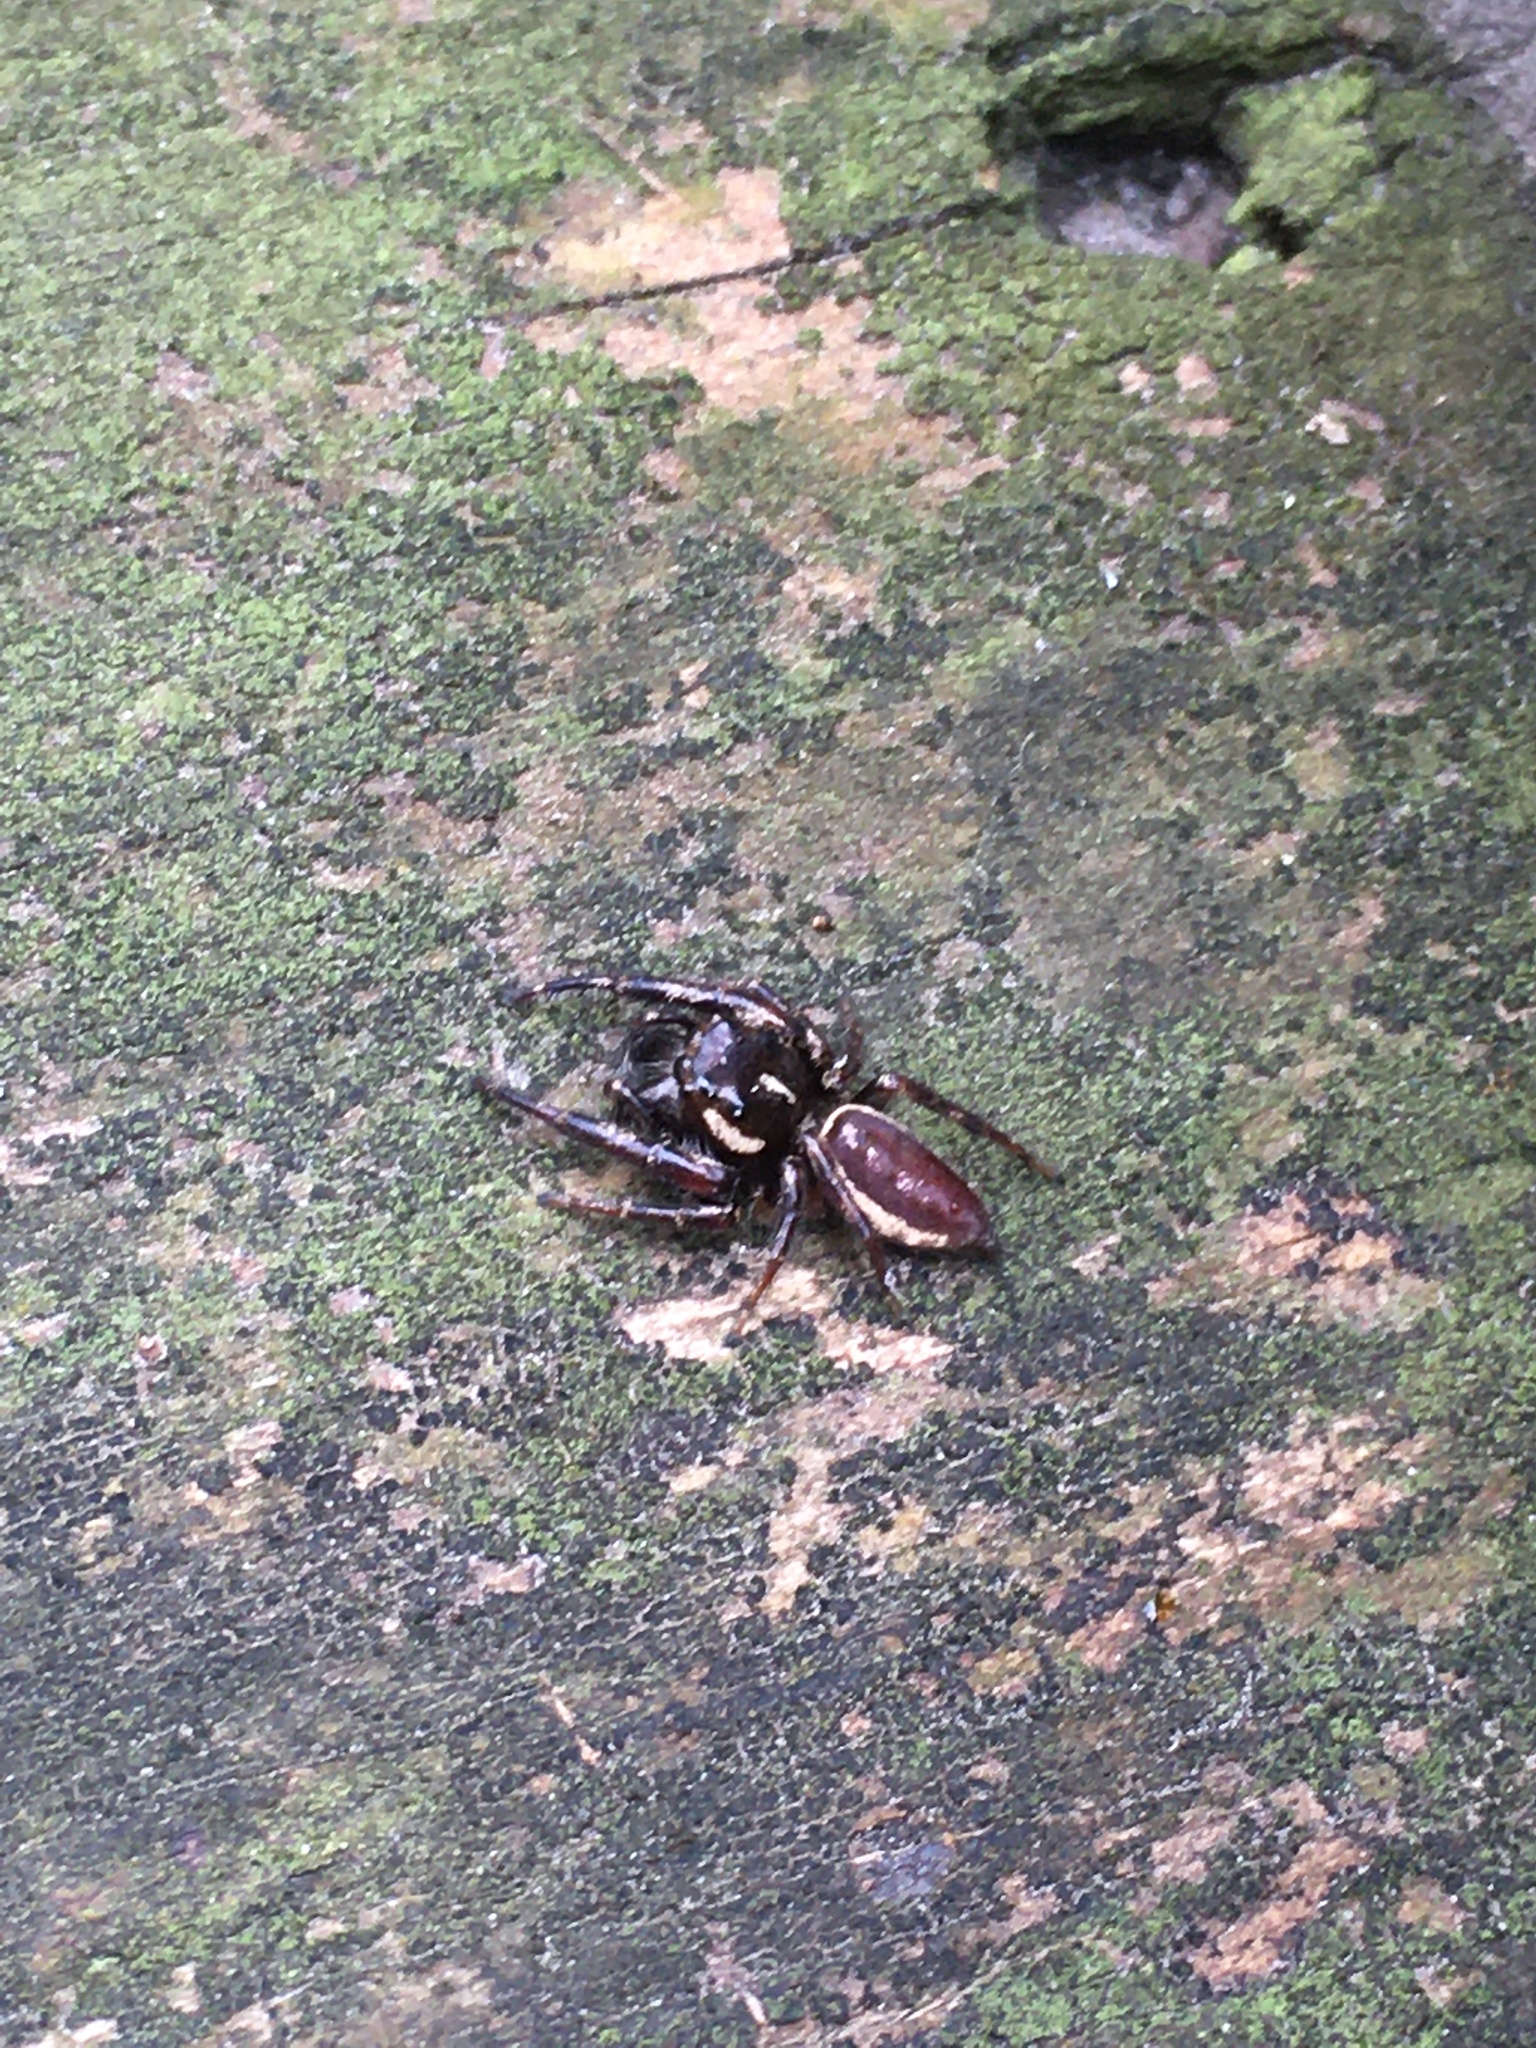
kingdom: Animalia
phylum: Arthropoda
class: Arachnida
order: Araneae
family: Salticidae
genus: Eris
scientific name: Eris militaris
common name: Bronze jumper
